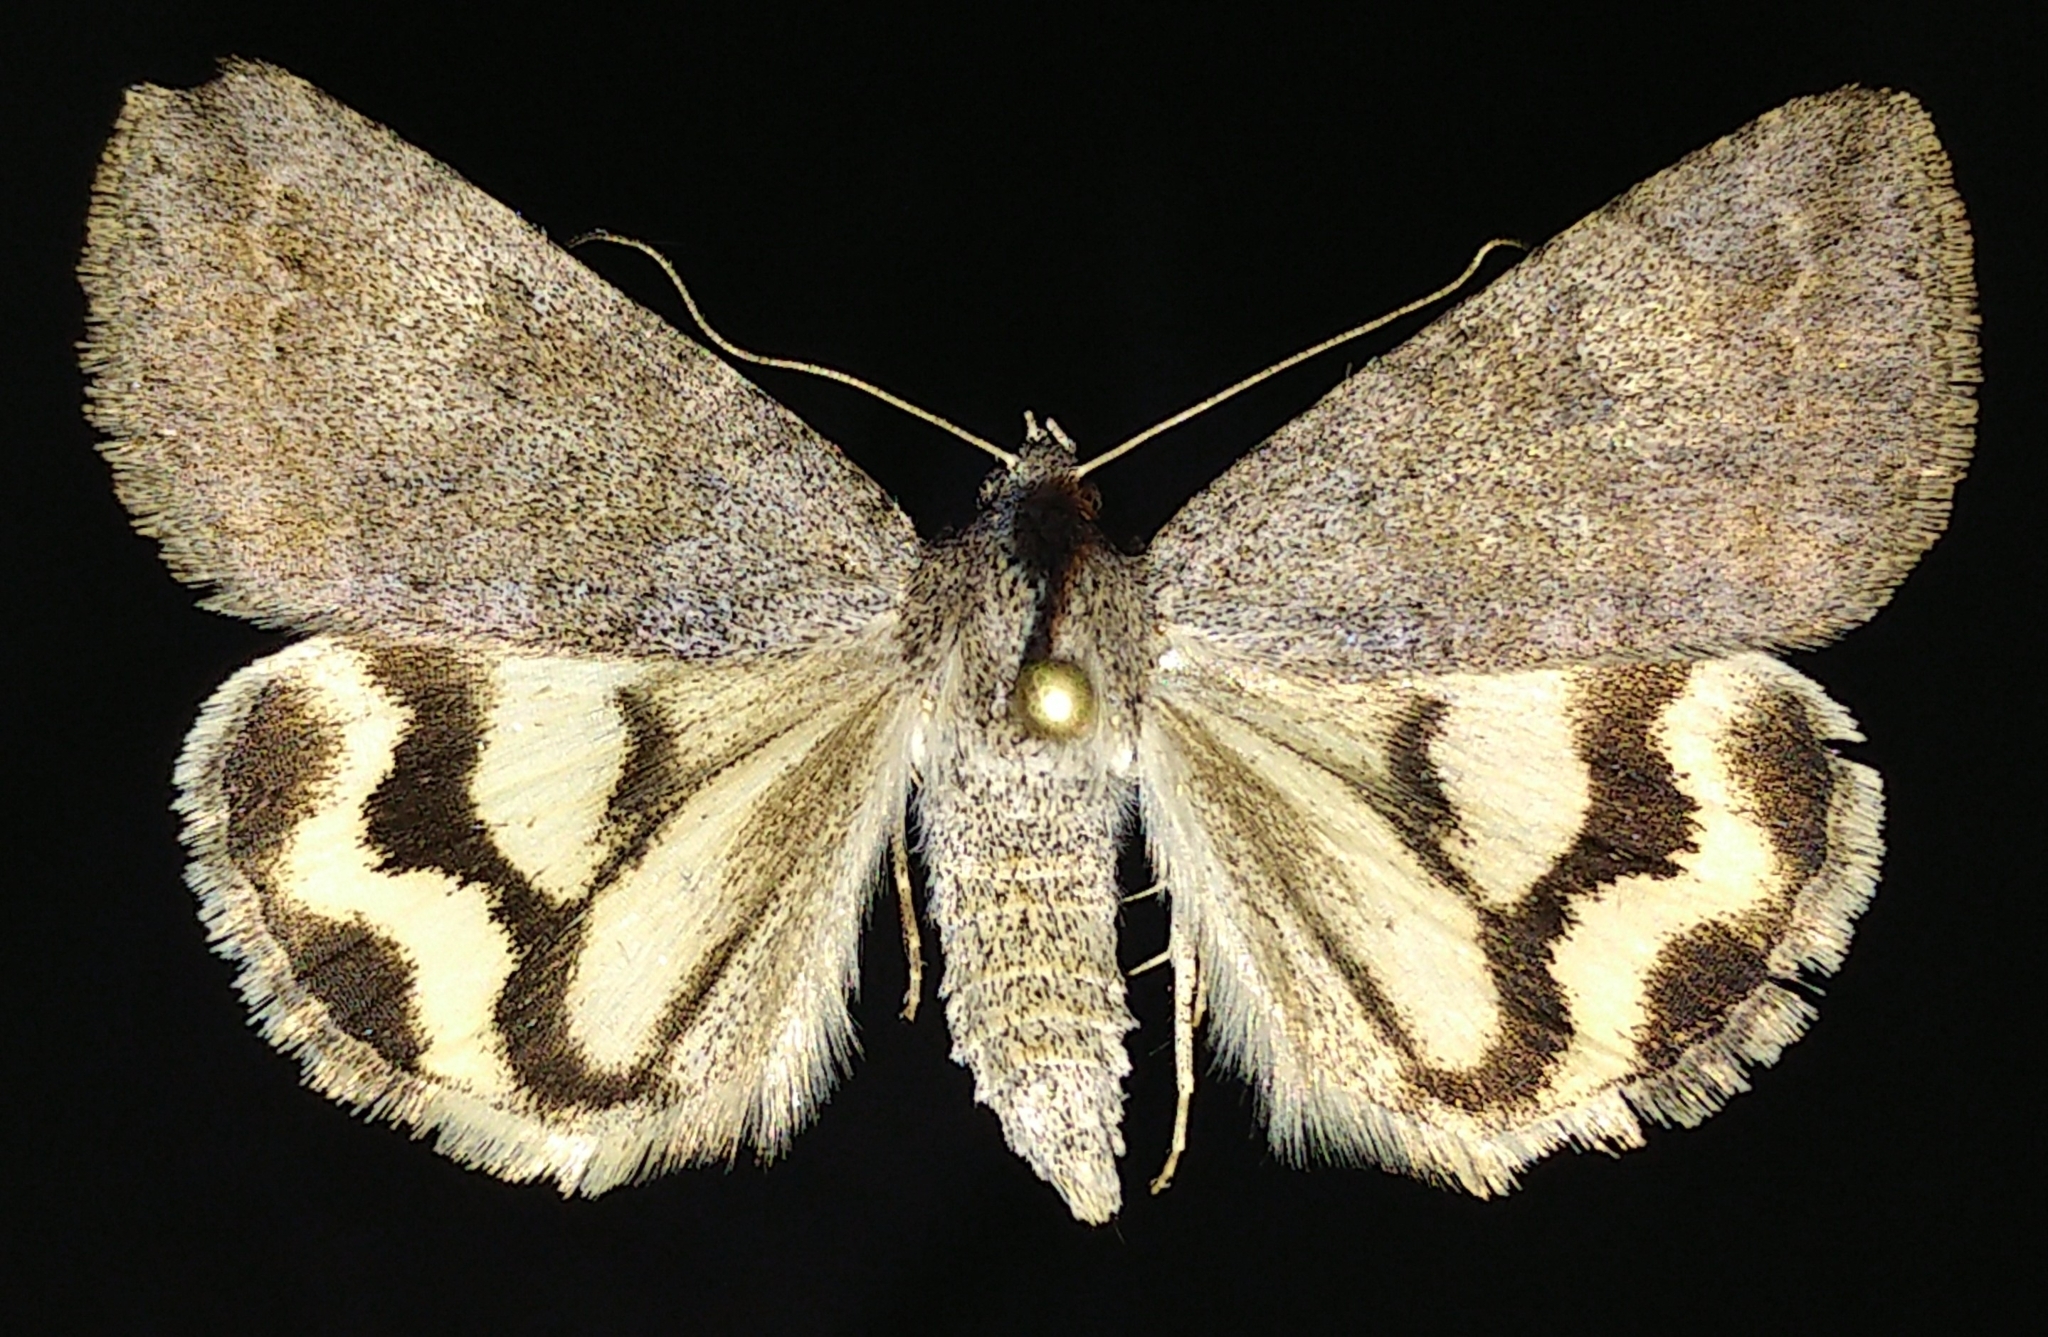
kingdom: Animalia
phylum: Arthropoda
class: Insecta
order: Lepidoptera
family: Erebidae
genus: Drasteria
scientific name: Drasteria hudsonica
